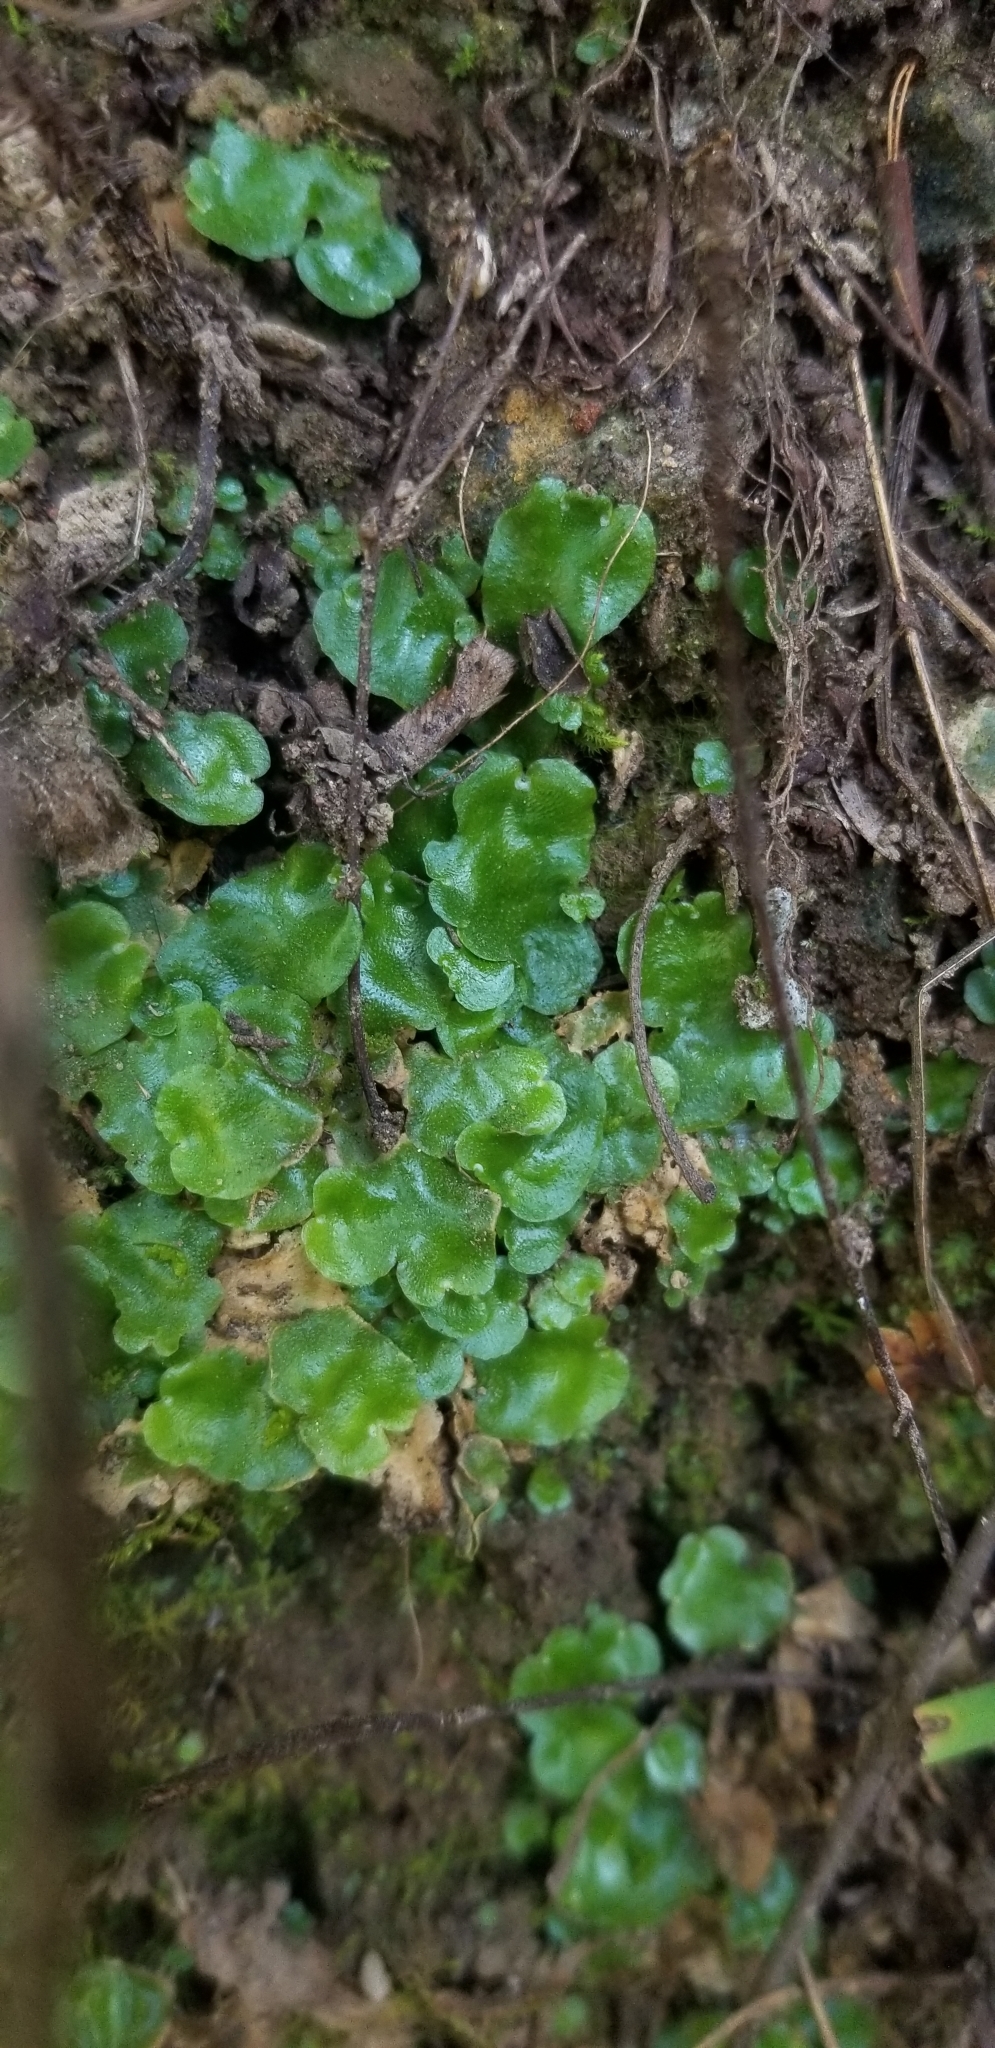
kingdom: Plantae
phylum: Marchantiophyta
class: Marchantiopsida
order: Lunulariales
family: Lunulariaceae
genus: Lunularia
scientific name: Lunularia cruciata
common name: Crescent-cup liverwort
